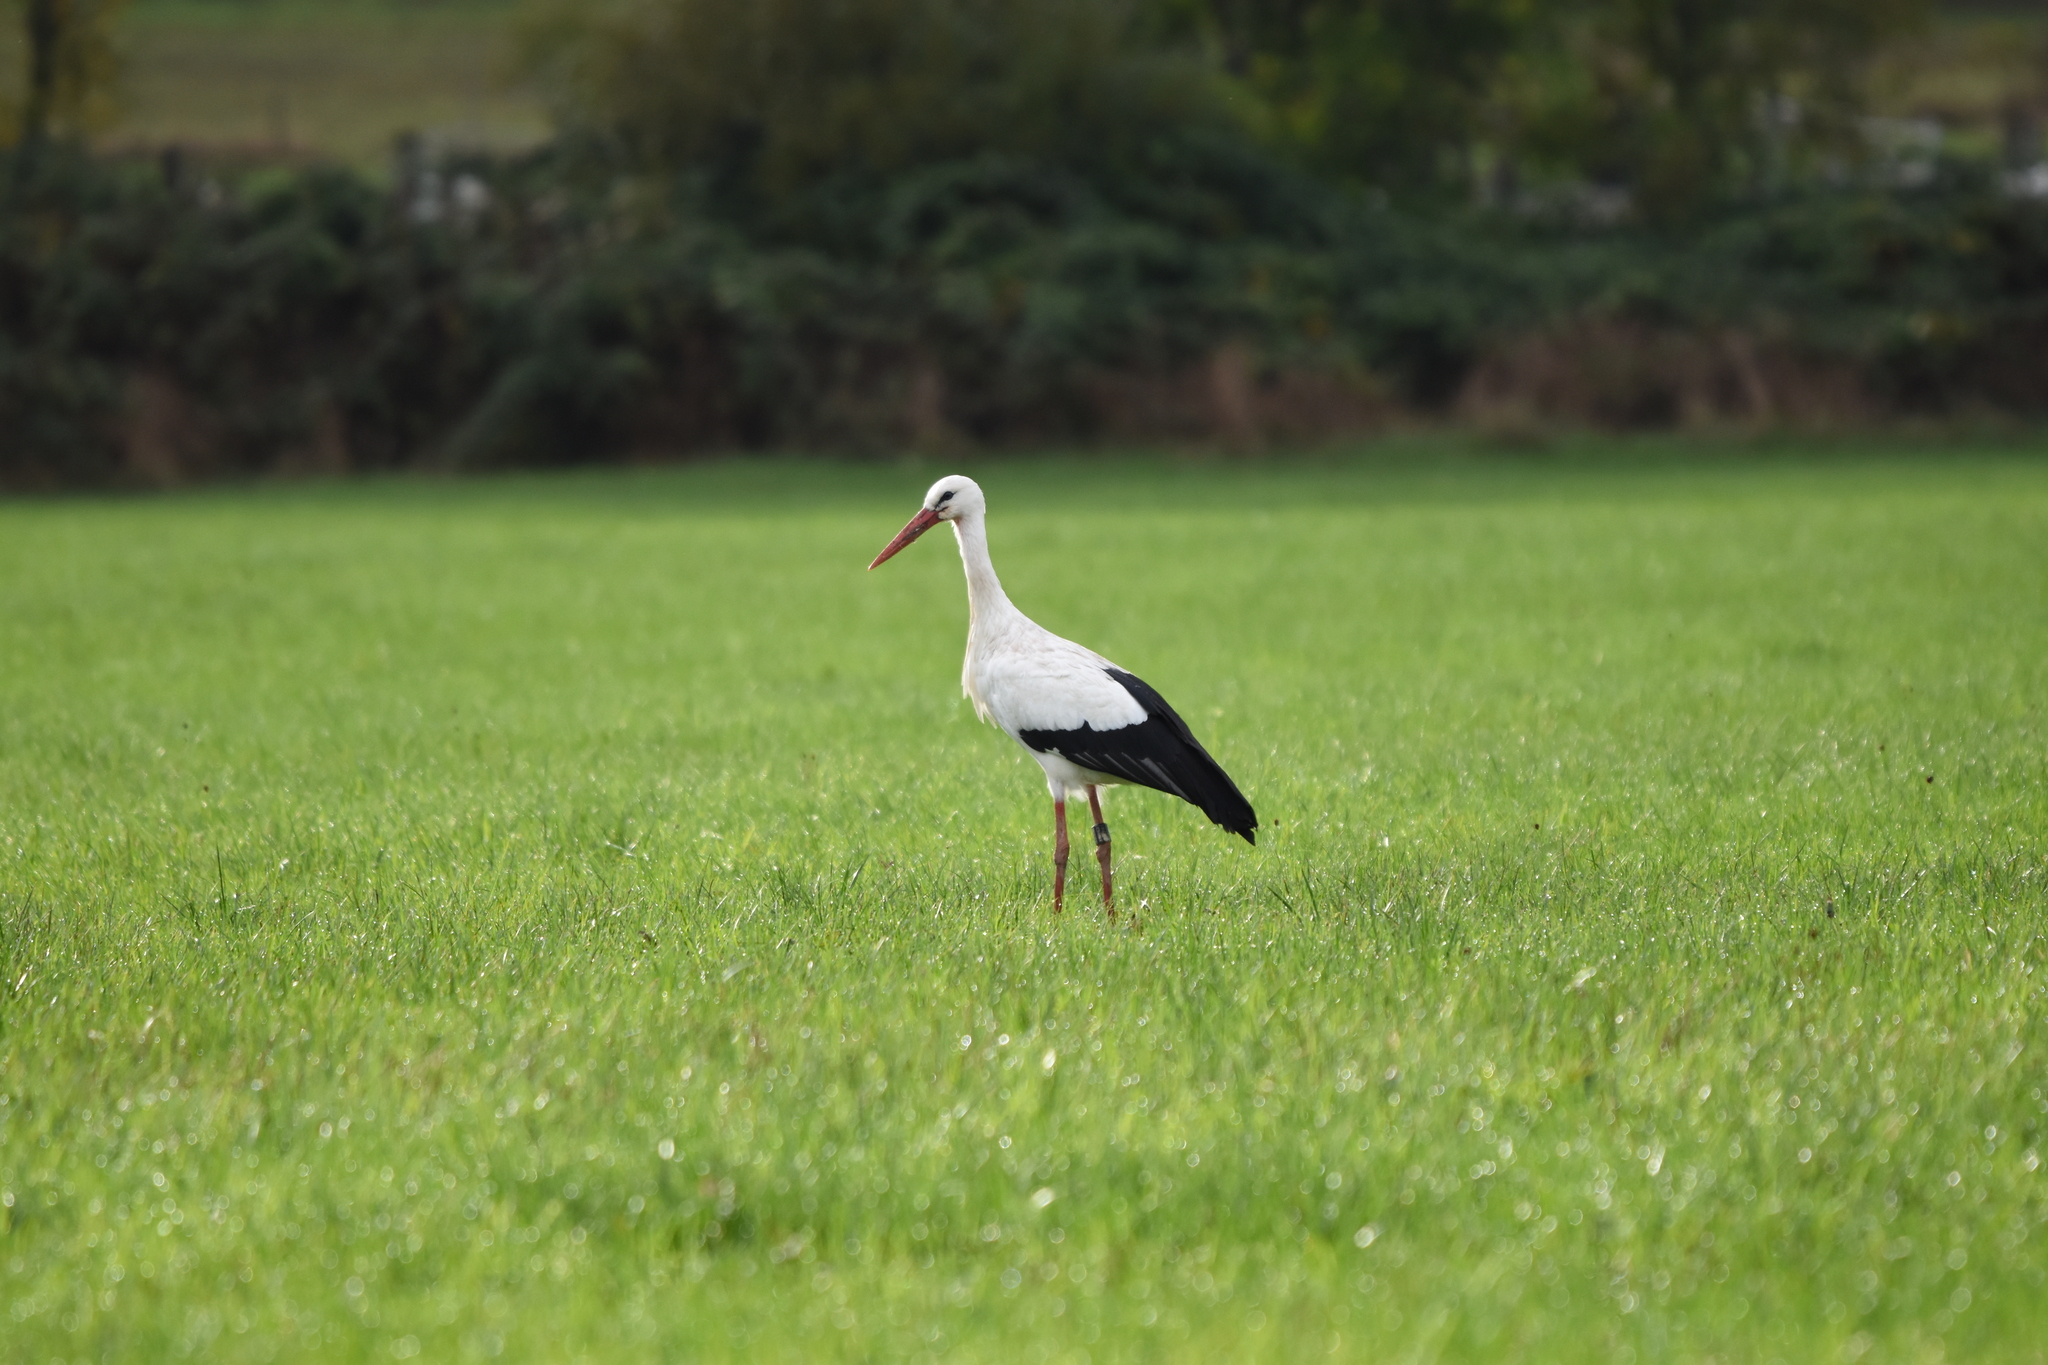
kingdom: Animalia
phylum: Chordata
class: Aves
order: Ciconiiformes
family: Ciconiidae
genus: Ciconia
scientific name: Ciconia ciconia
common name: White stork
